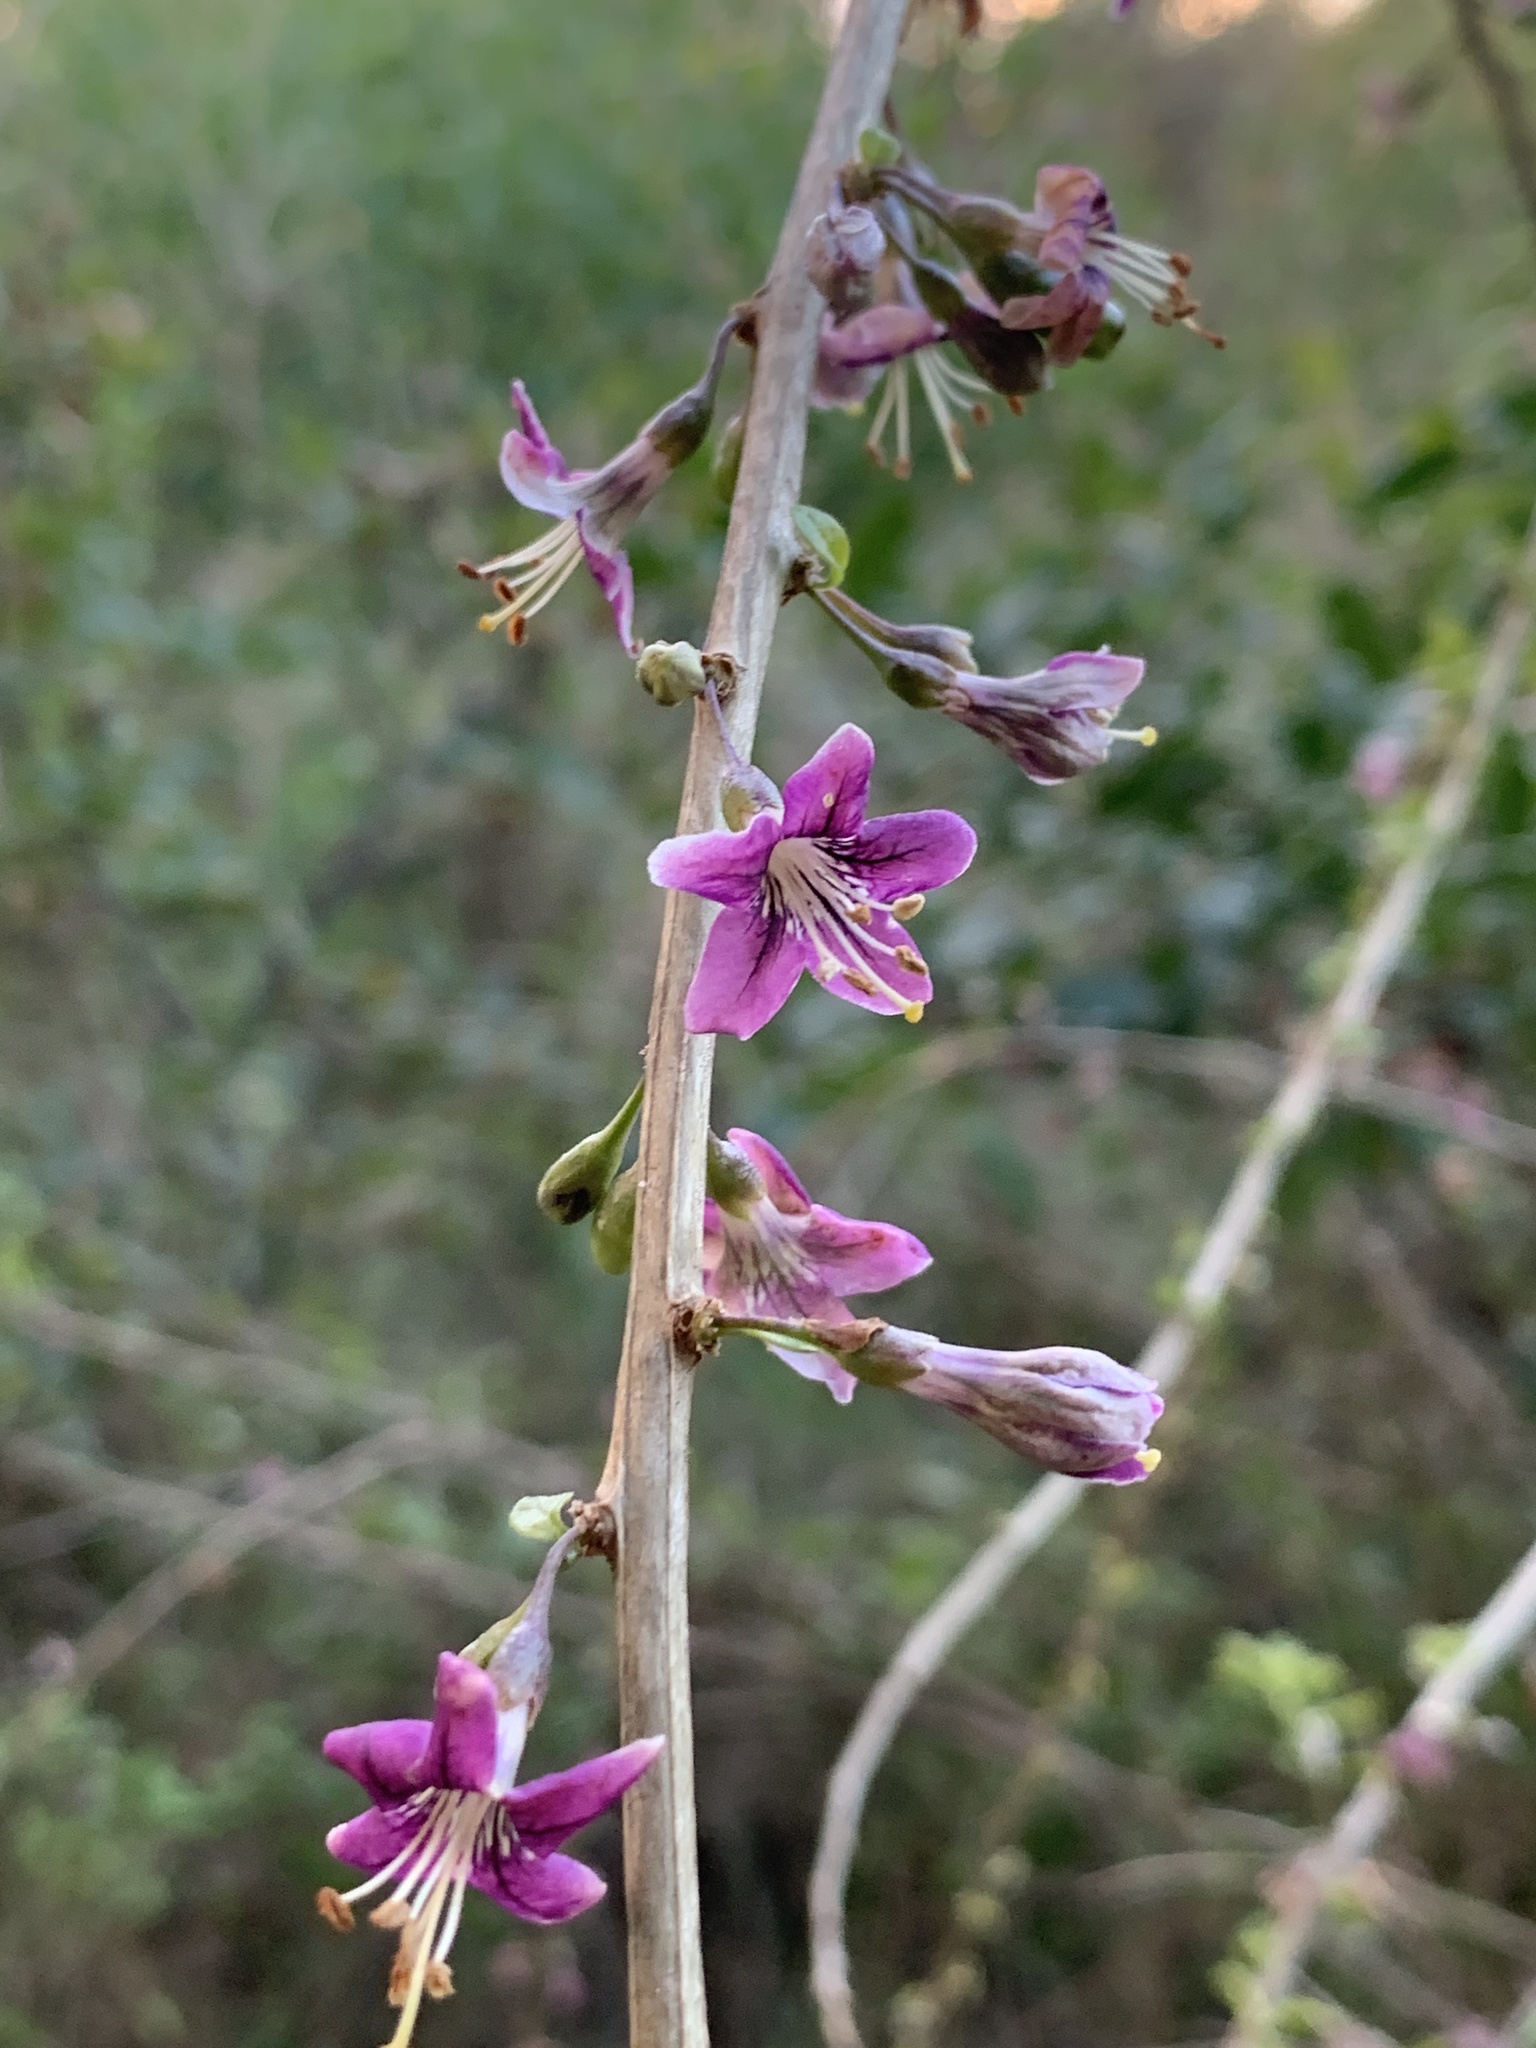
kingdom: Plantae
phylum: Tracheophyta
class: Magnoliopsida
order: Solanales
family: Solanaceae
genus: Lycium
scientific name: Lycium barbarum
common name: Duke of argyll's teaplant
